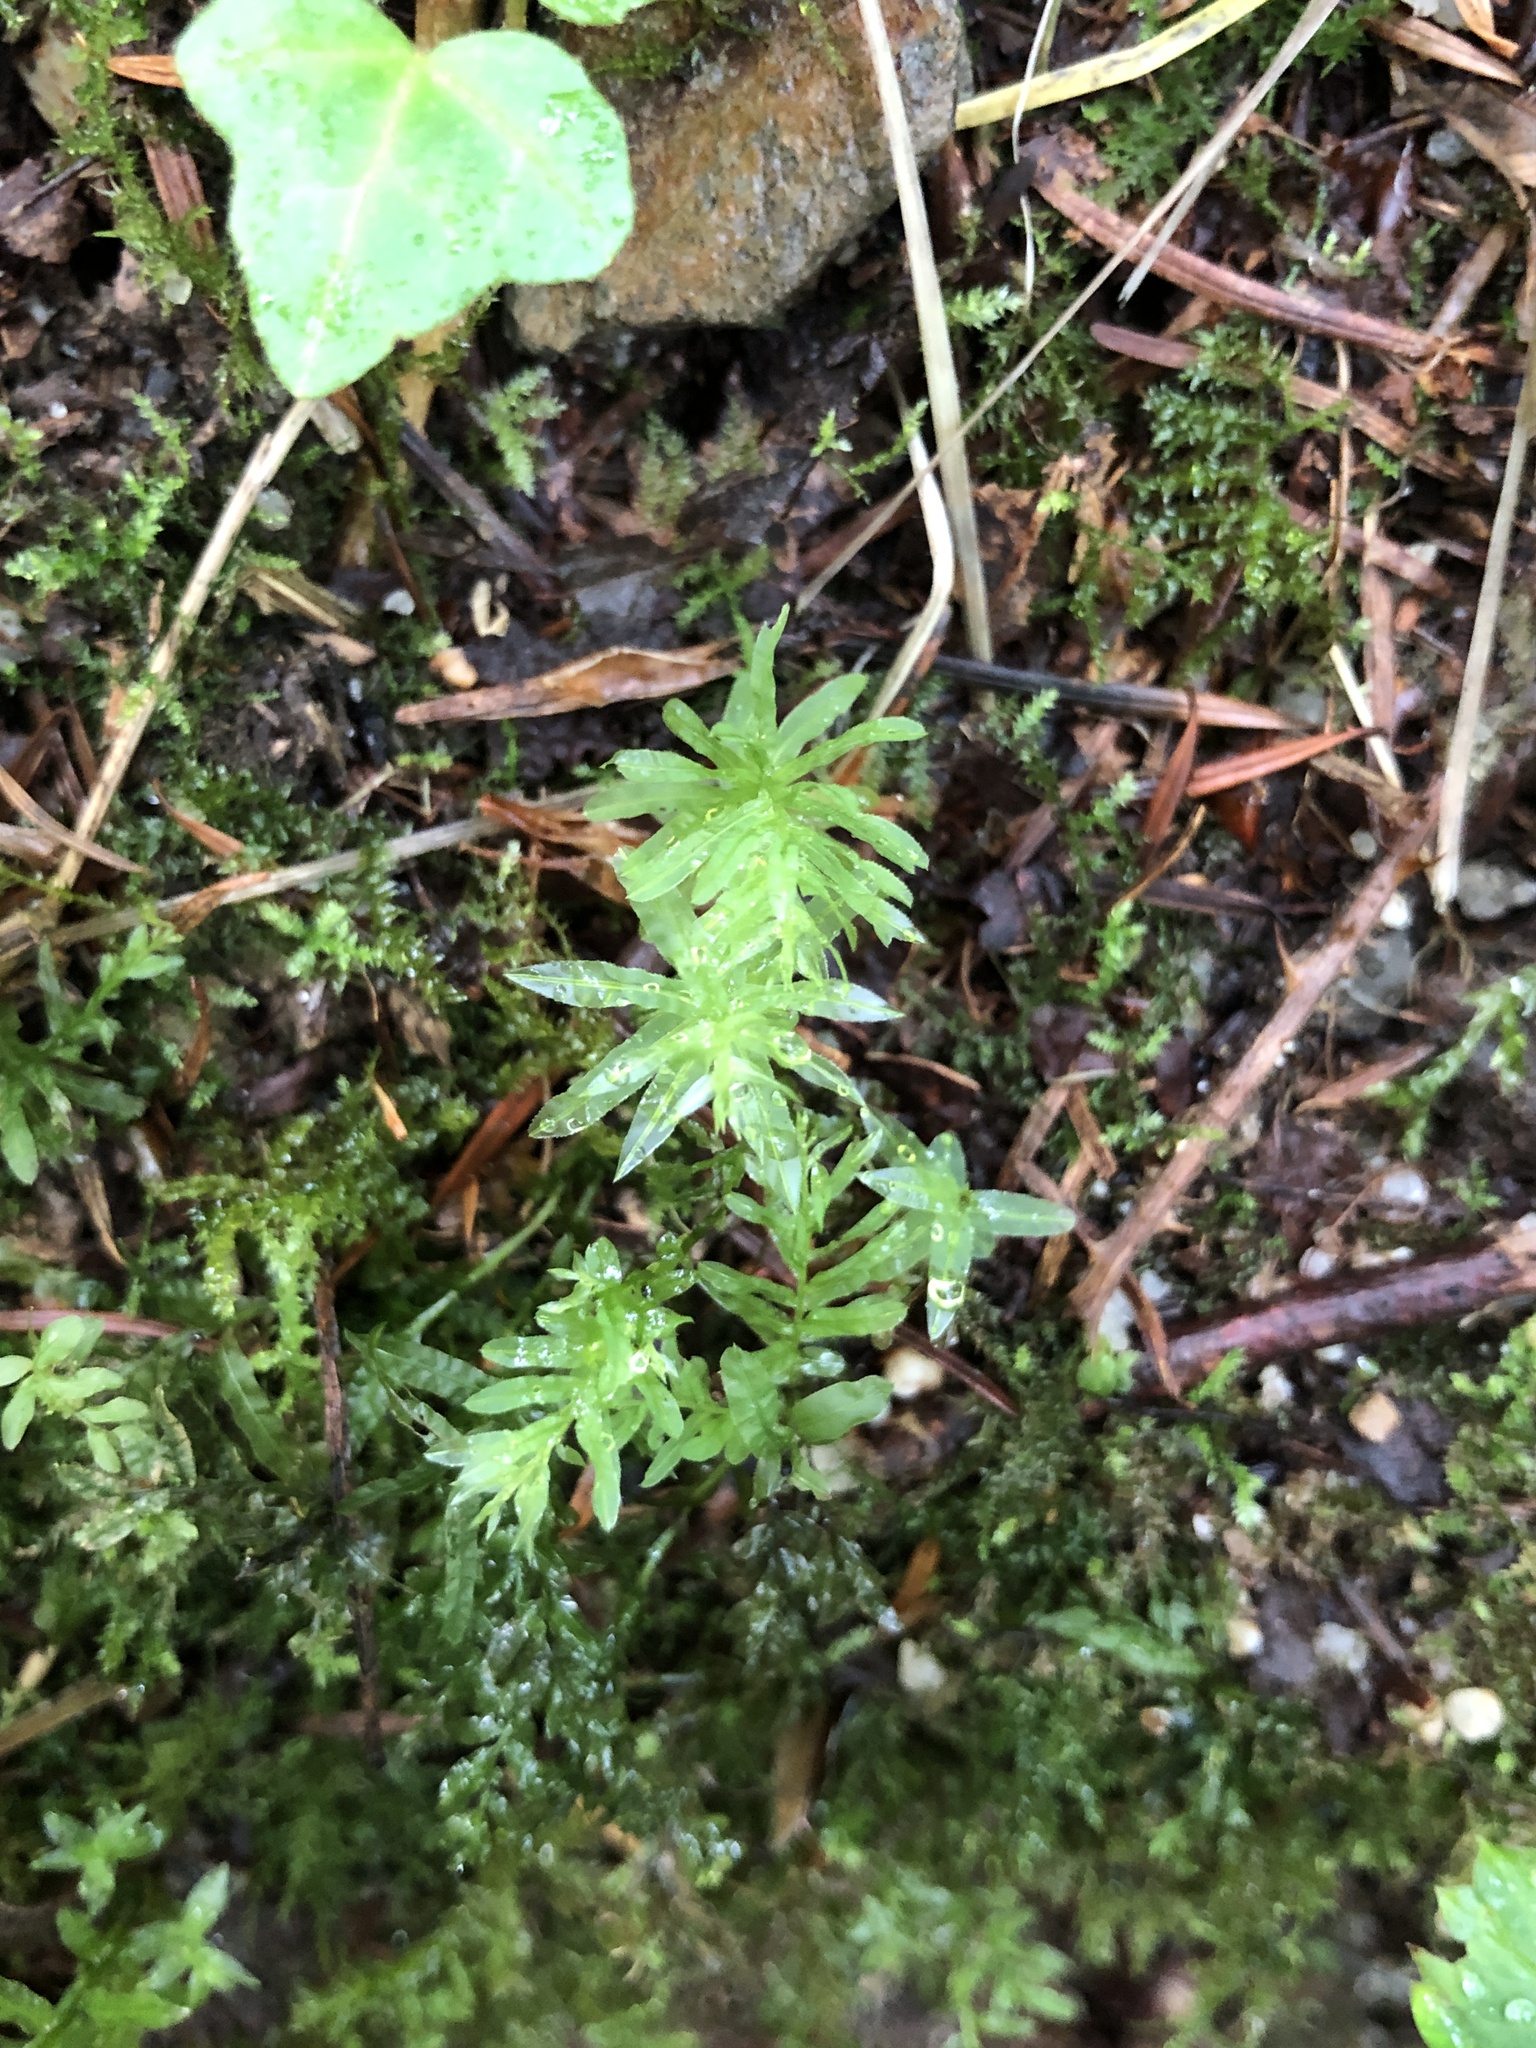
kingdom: Plantae
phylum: Bryophyta
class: Bryopsida
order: Bryales
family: Mniaceae
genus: Plagiomnium
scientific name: Plagiomnium undulatum
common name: Hart's-tongue thyme-moss
